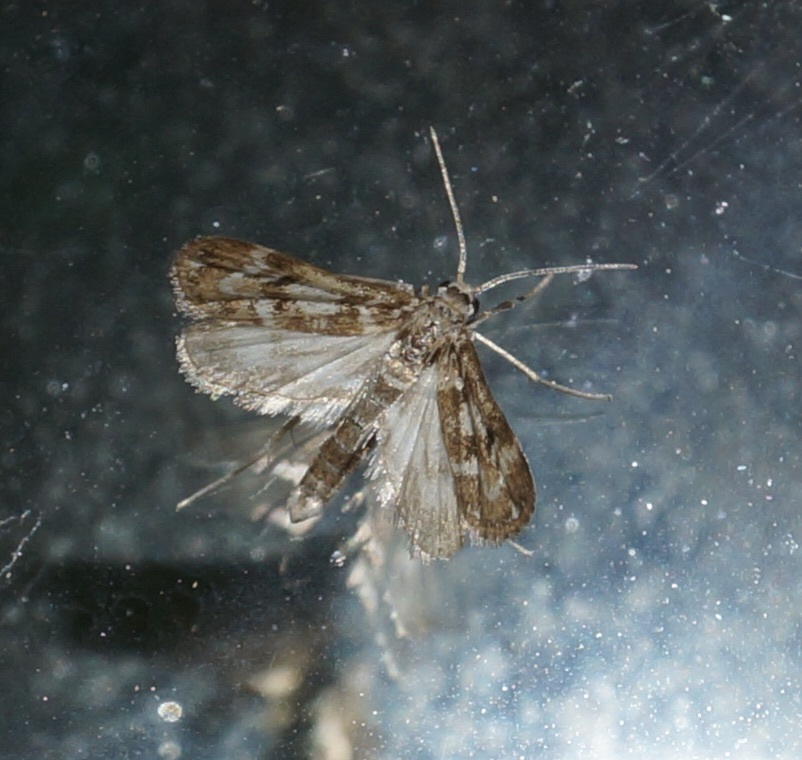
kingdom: Animalia
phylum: Arthropoda
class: Insecta
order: Lepidoptera
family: Crambidae
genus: Hygraula
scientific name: Hygraula nitens
